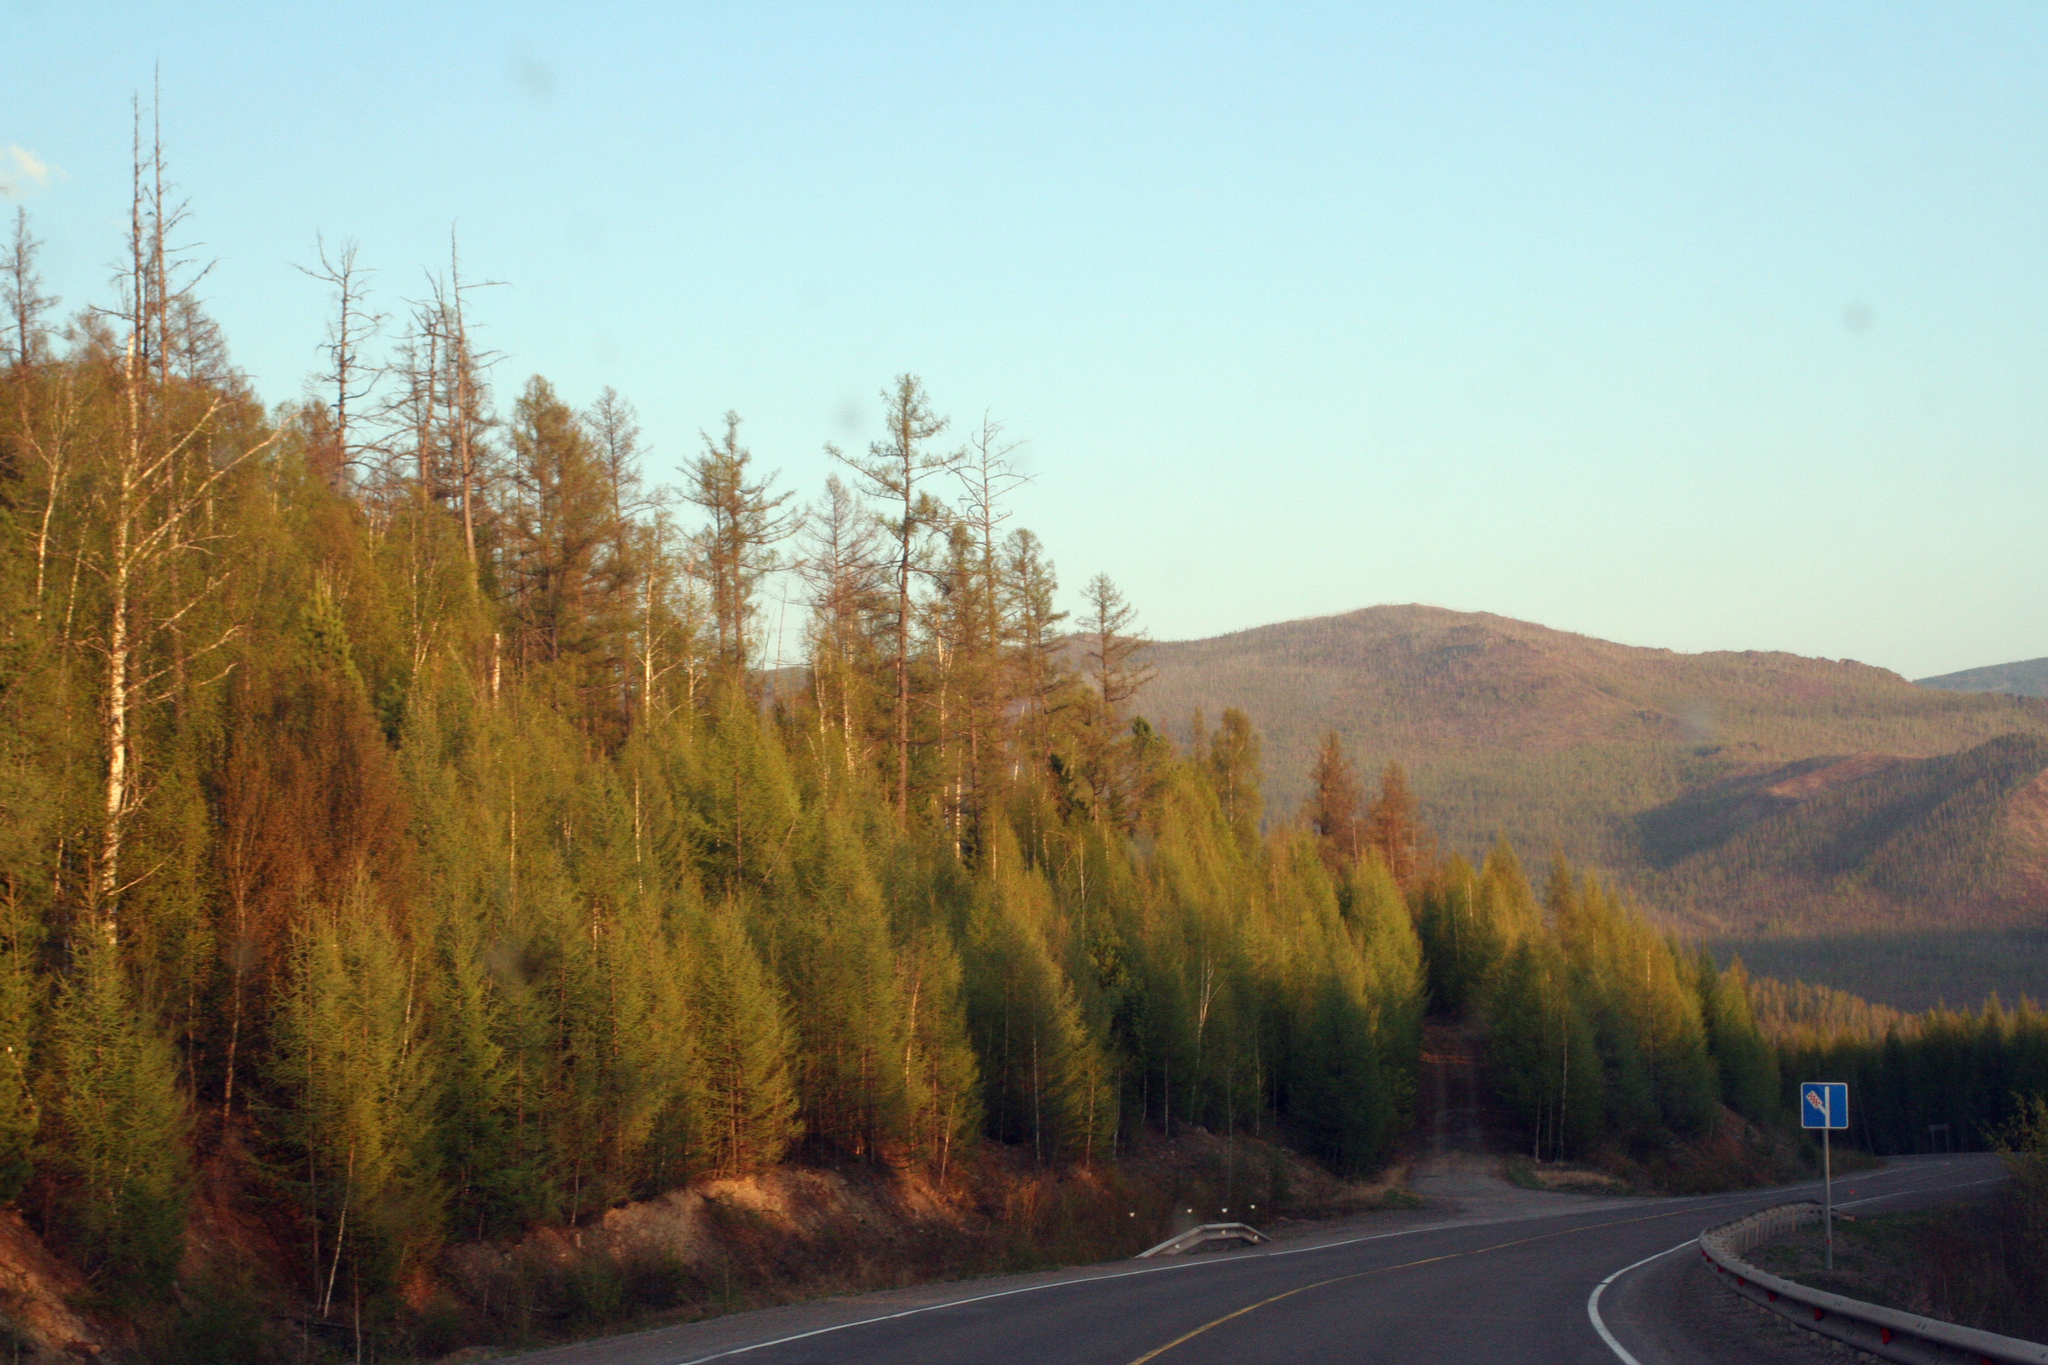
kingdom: Plantae
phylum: Tracheophyta
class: Pinopsida
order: Pinales
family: Pinaceae
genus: Larix
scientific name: Larix sibirica
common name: Siberian larch
